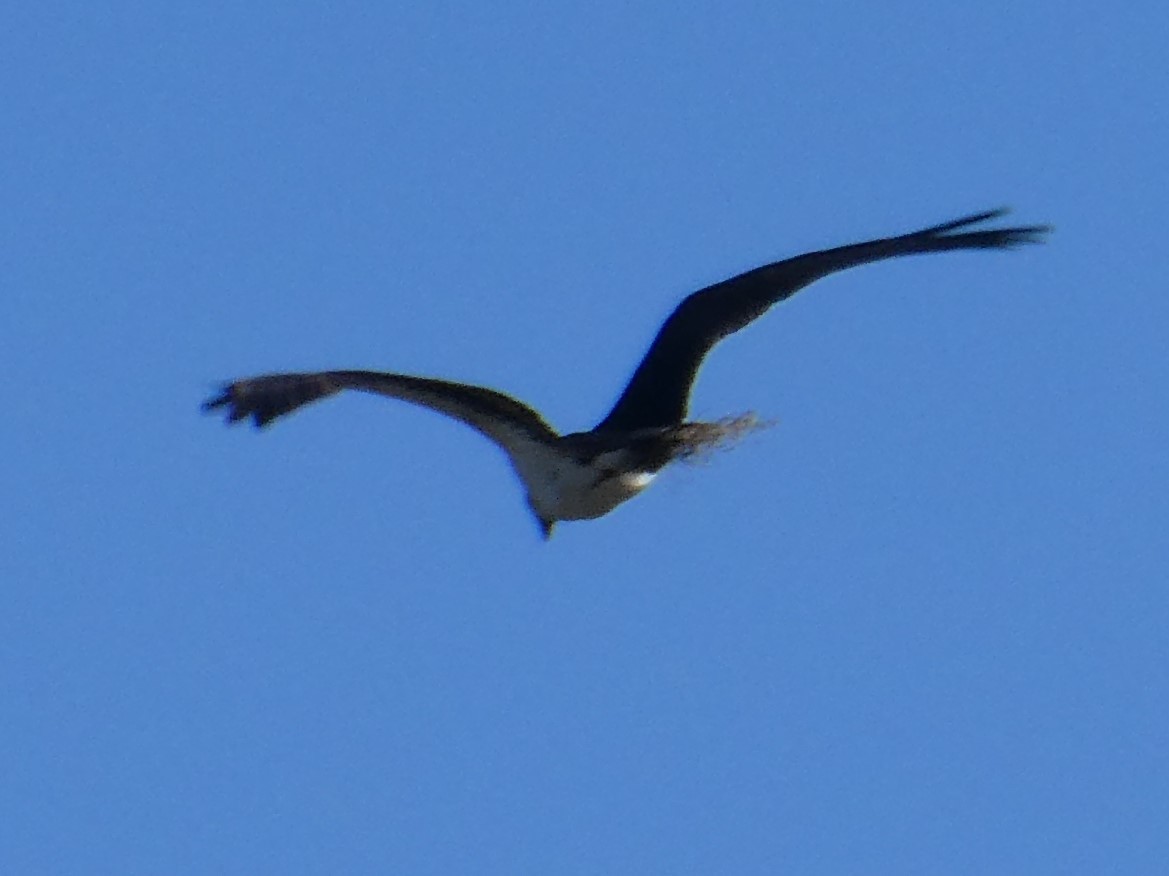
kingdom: Animalia
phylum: Chordata
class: Aves
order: Accipitriformes
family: Pandionidae
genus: Pandion
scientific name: Pandion haliaetus
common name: Osprey
